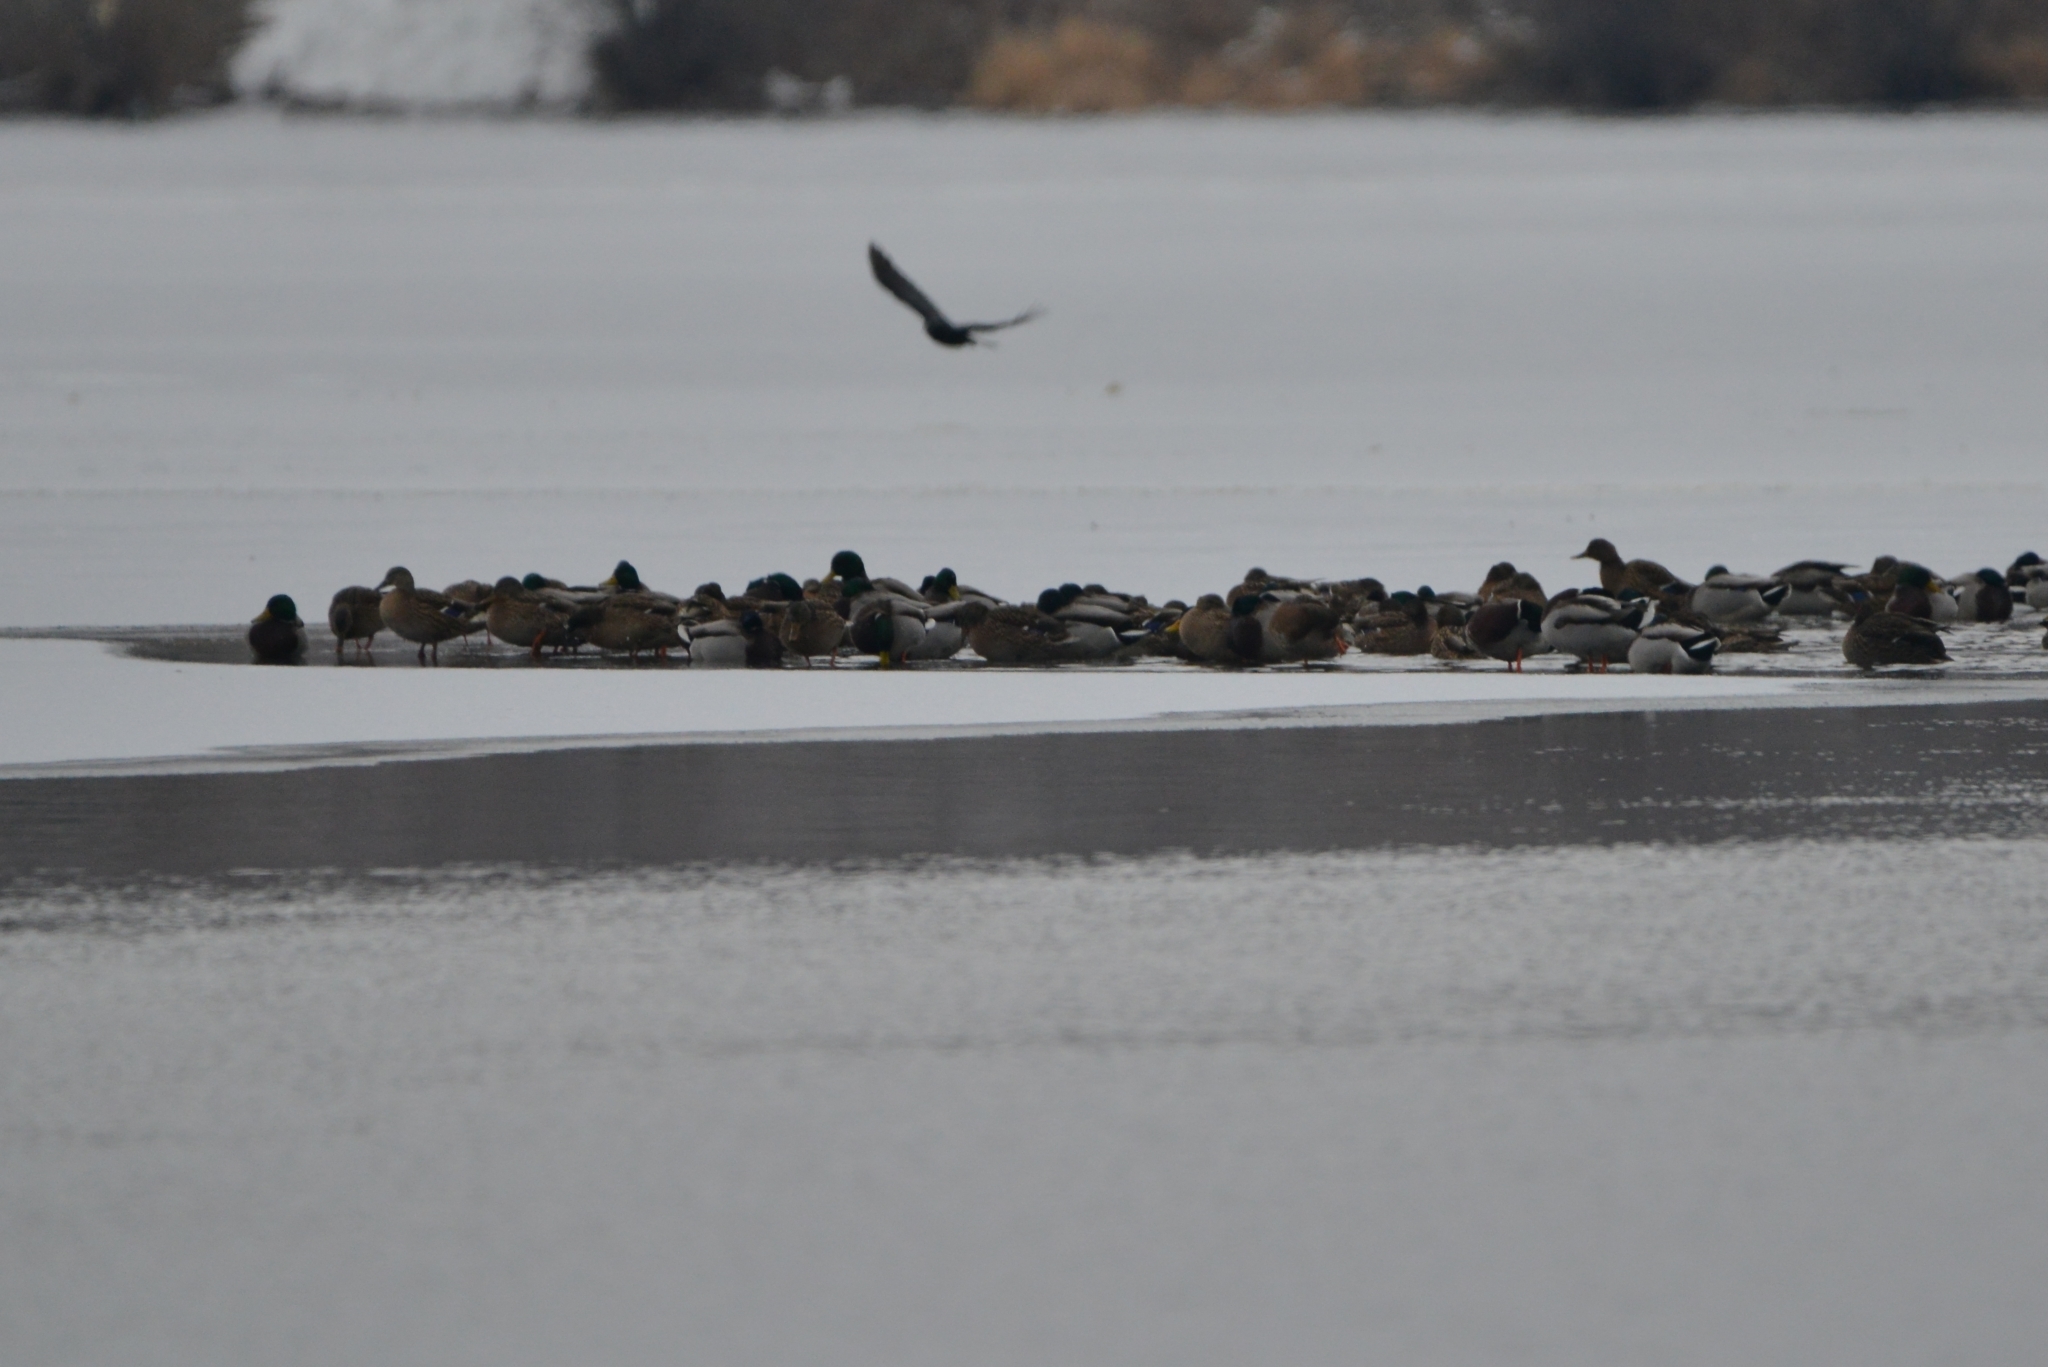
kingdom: Animalia
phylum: Chordata
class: Aves
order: Anseriformes
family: Anatidae
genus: Anas
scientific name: Anas platyrhynchos
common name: Mallard
